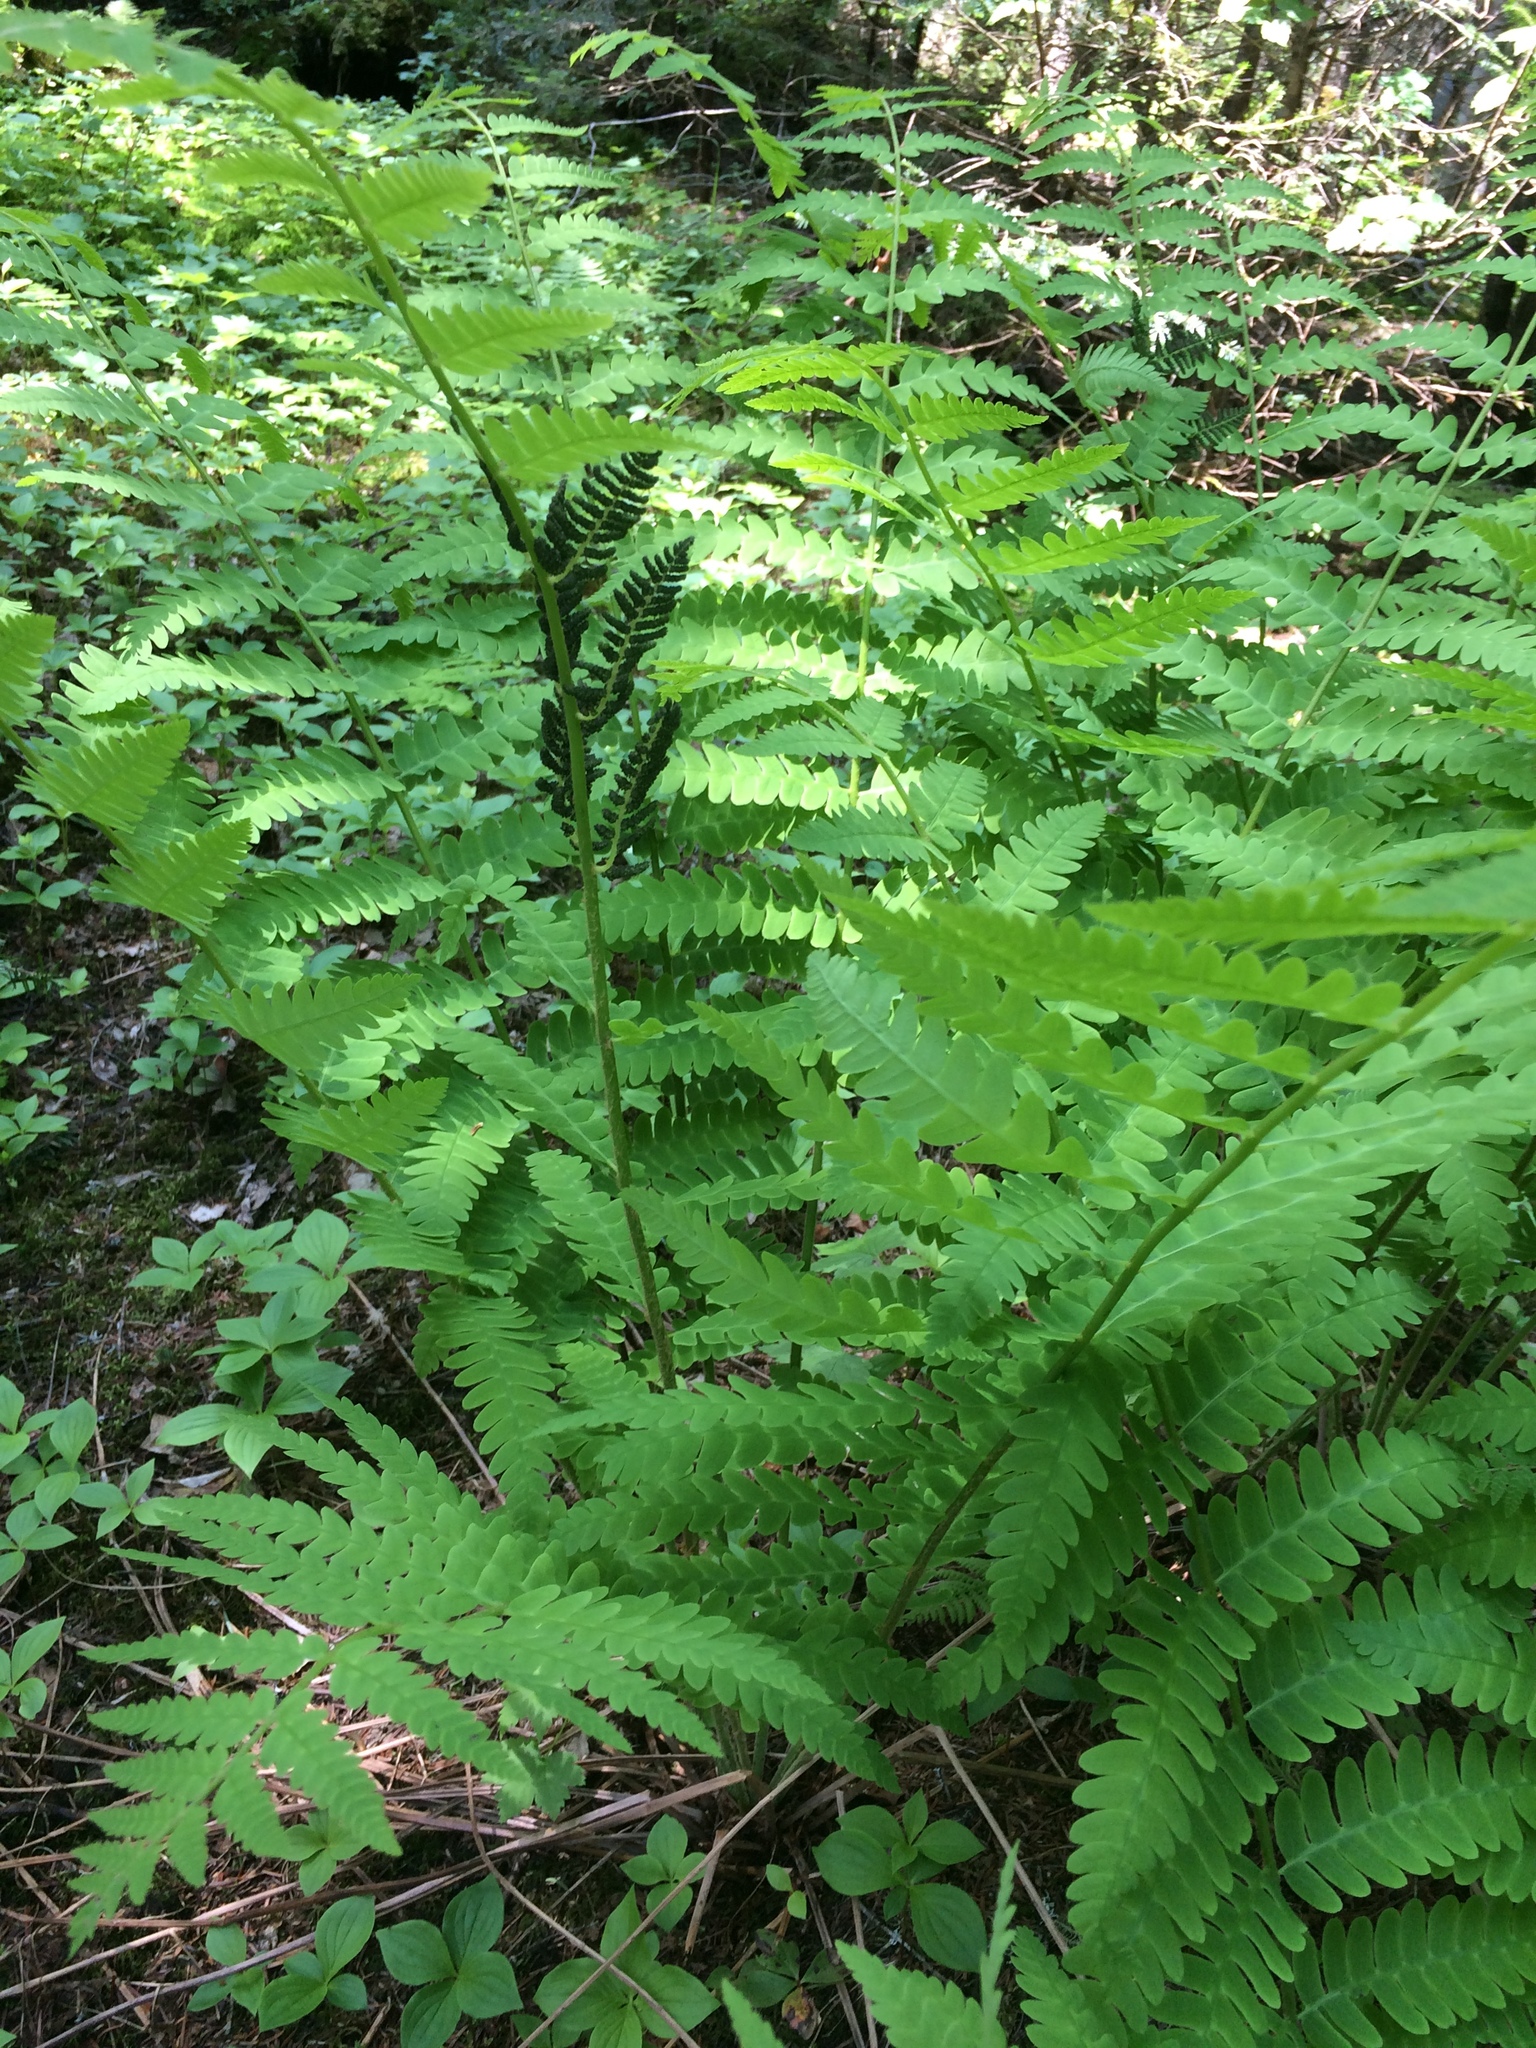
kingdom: Plantae
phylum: Tracheophyta
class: Polypodiopsida
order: Osmundales
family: Osmundaceae
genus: Claytosmunda
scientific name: Claytosmunda claytoniana
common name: Clayton's fern
